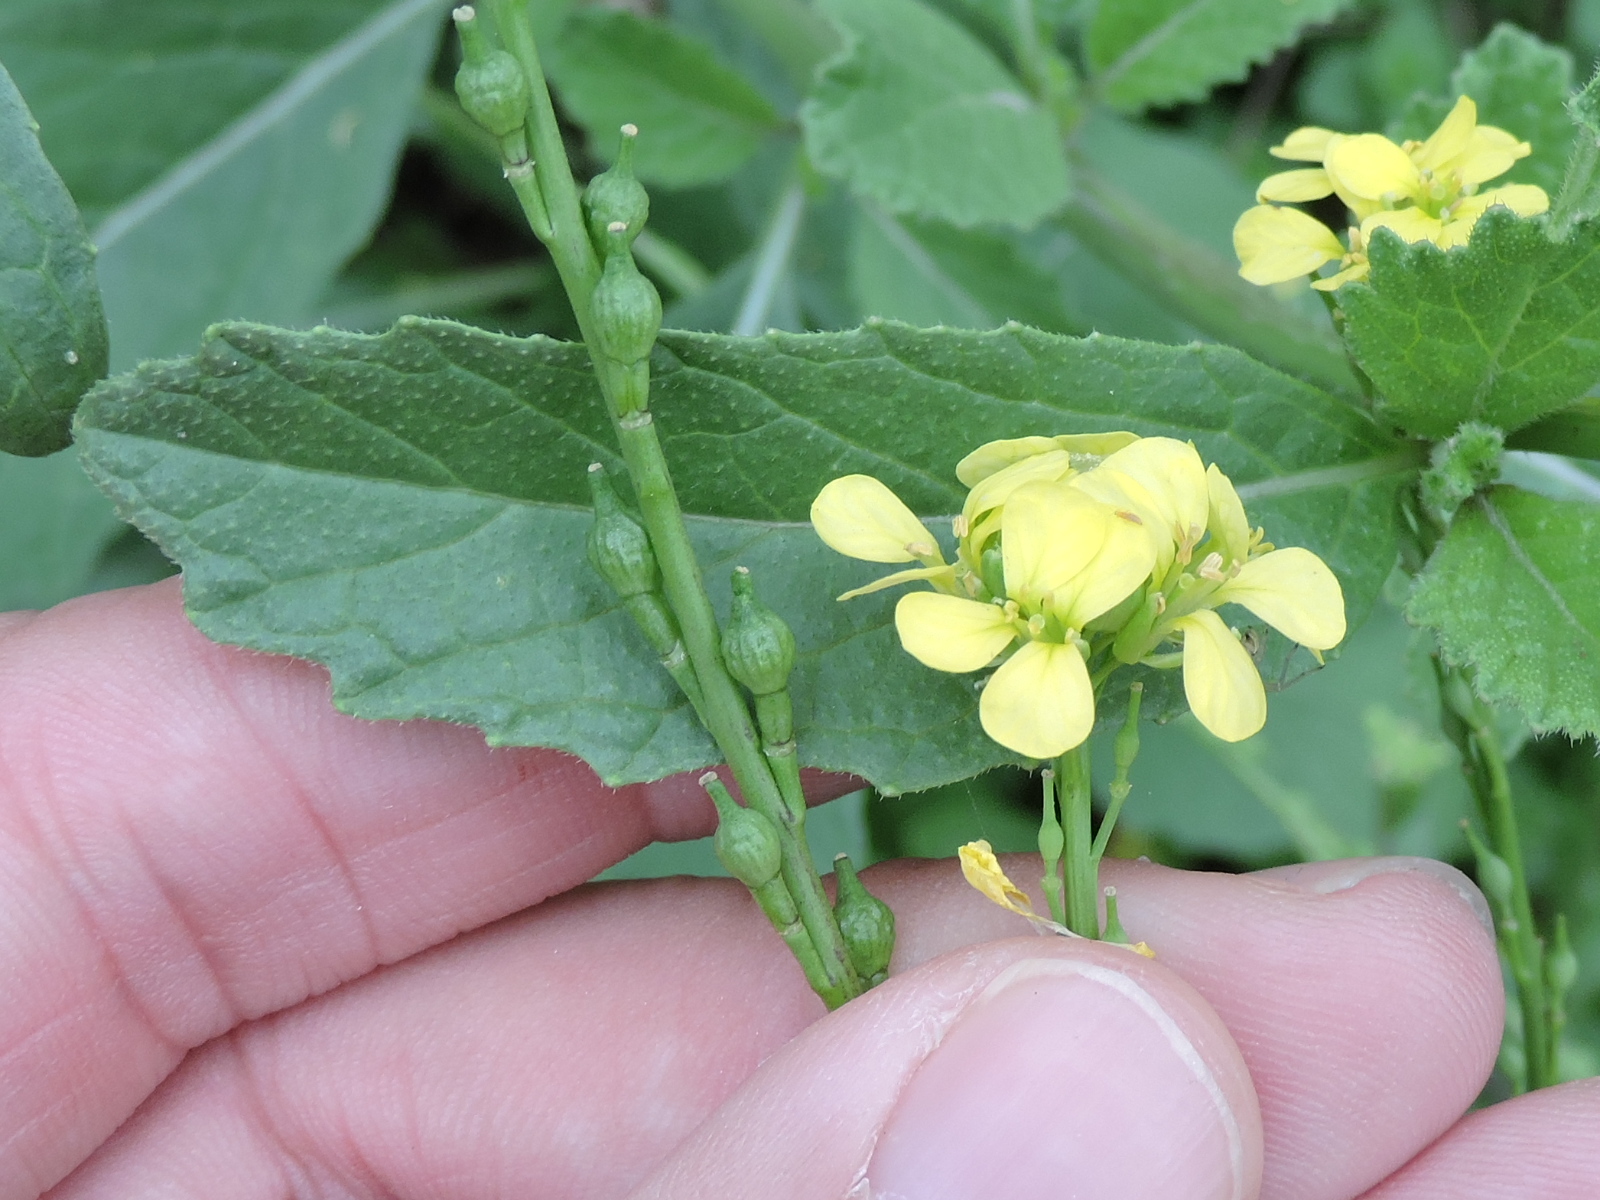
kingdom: Plantae
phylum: Tracheophyta
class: Magnoliopsida
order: Brassicales
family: Brassicaceae
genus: Rapistrum
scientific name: Rapistrum rugosum
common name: Annual bastardcabbage
